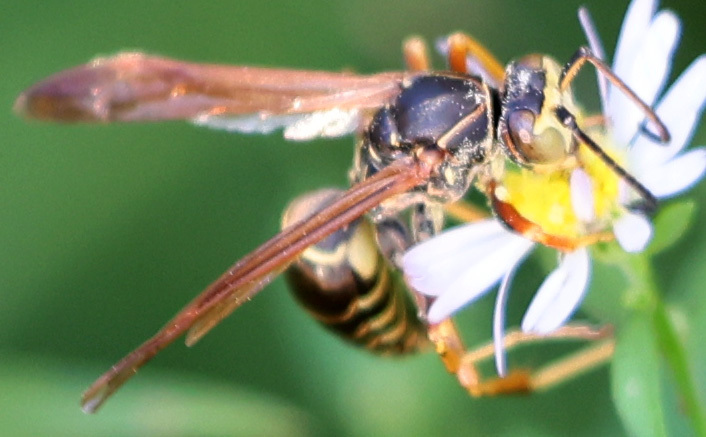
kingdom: Animalia
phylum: Arthropoda
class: Insecta
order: Hymenoptera
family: Eumenidae
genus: Polistes
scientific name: Polistes fuscatus
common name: Dark paper wasp
